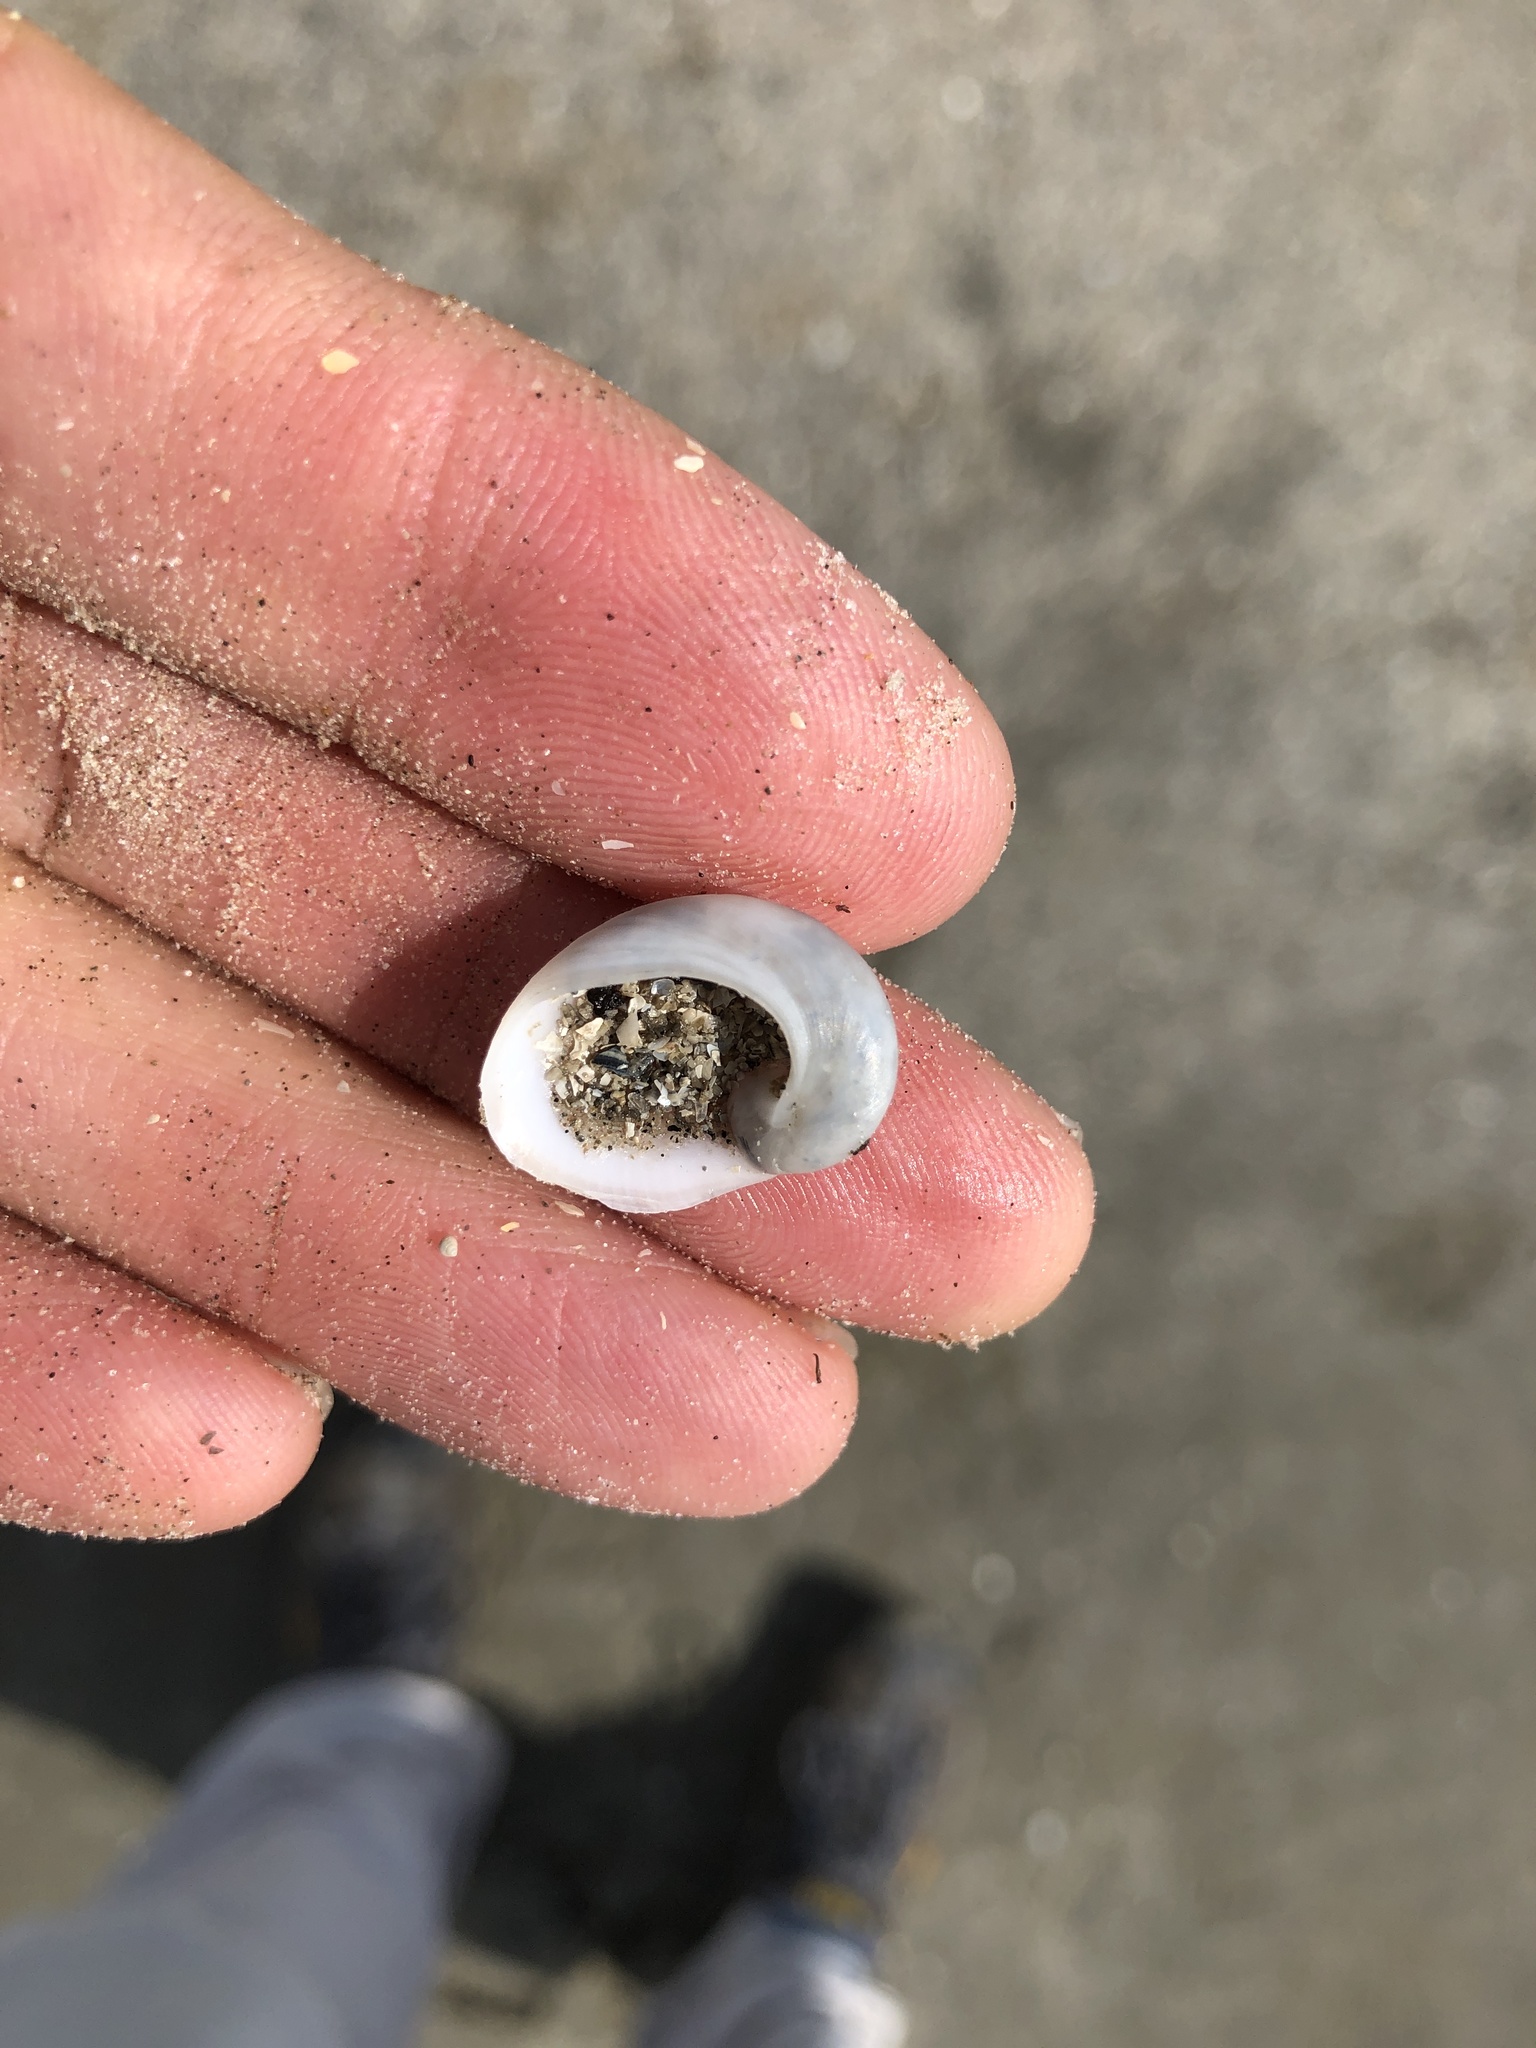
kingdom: Animalia
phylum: Mollusca
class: Gastropoda
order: Littorinimorpha
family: Naticidae
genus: Sinum
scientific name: Sinum perspectivum
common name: White baby ear
